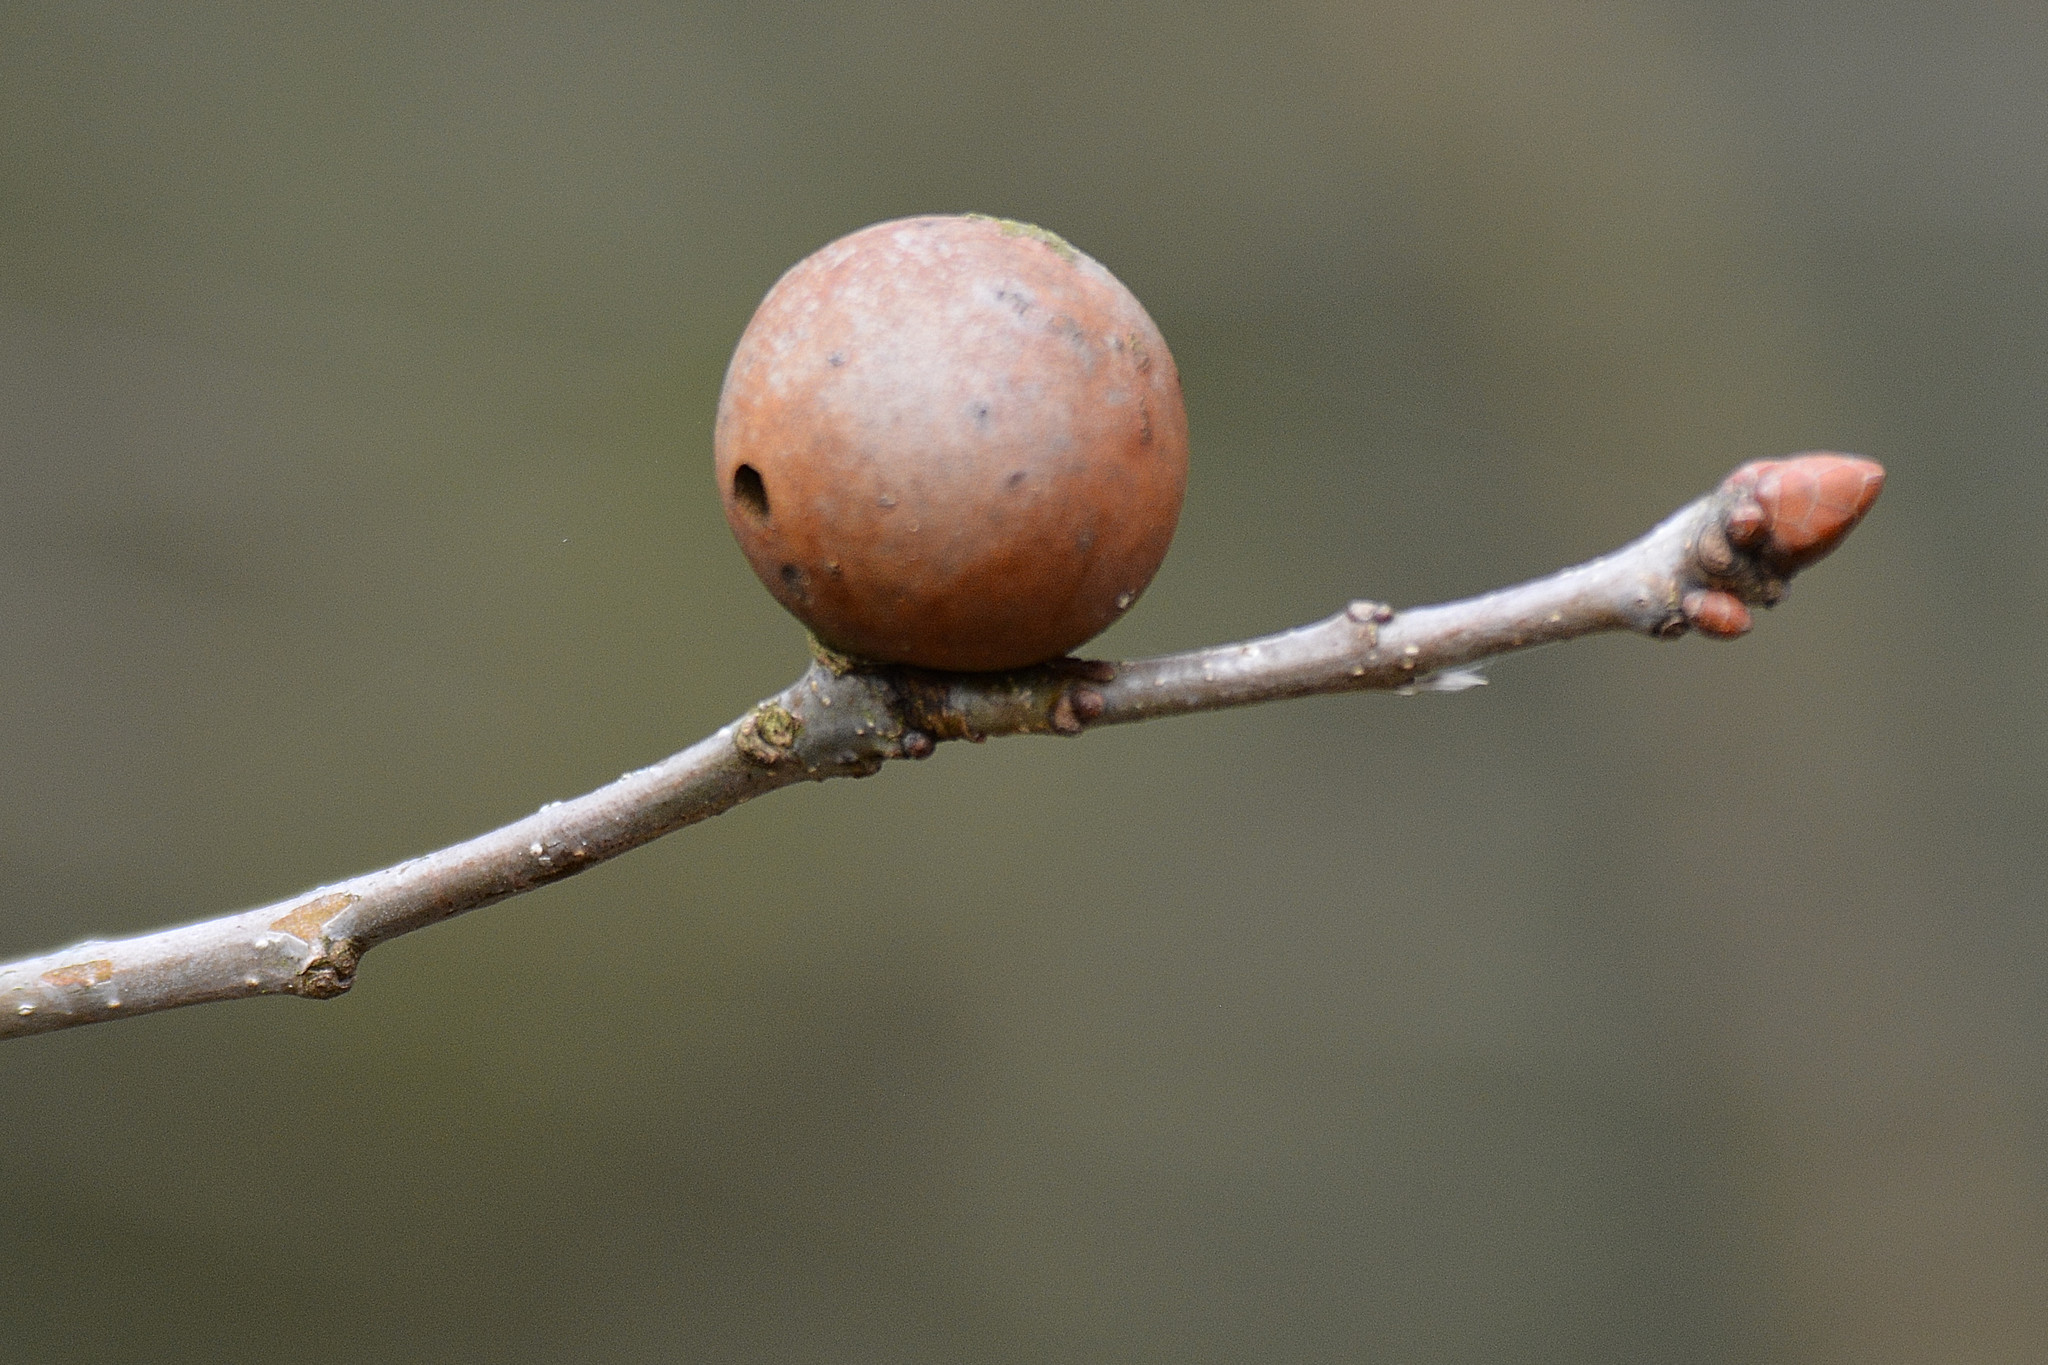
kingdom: Animalia
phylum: Arthropoda
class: Insecta
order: Hymenoptera
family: Cynipidae
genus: Andricus
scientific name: Andricus kollari
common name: Marble gall
